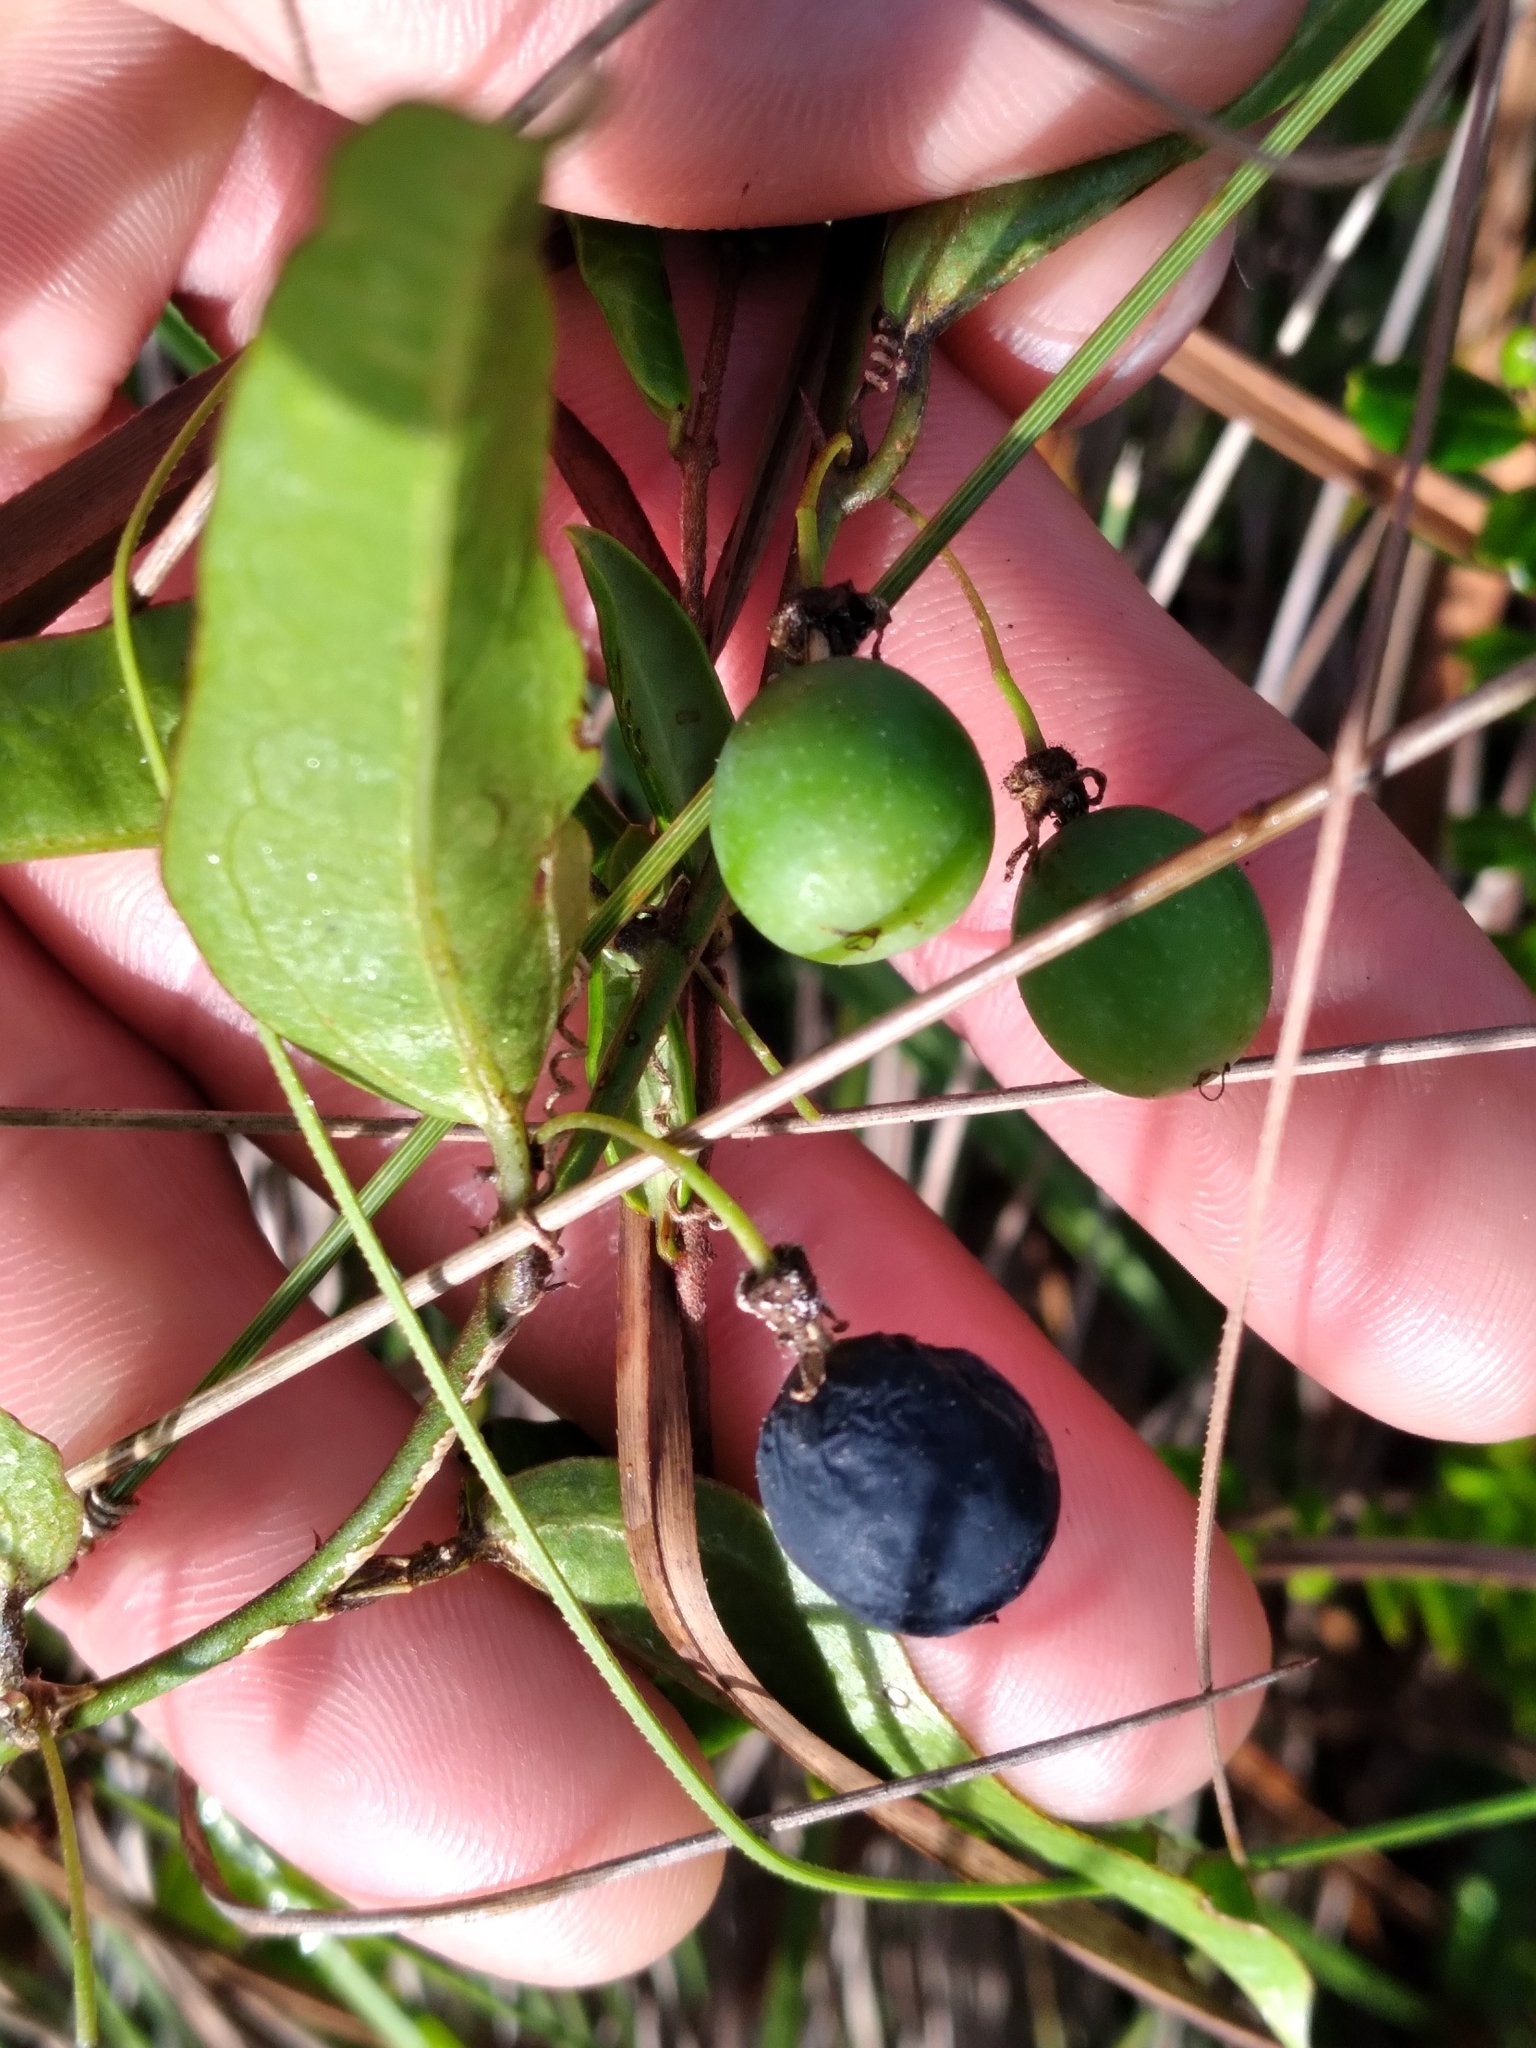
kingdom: Plantae
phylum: Tracheophyta
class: Magnoliopsida
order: Malpighiales
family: Passifloraceae
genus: Passiflora
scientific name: Passiflora pallida
